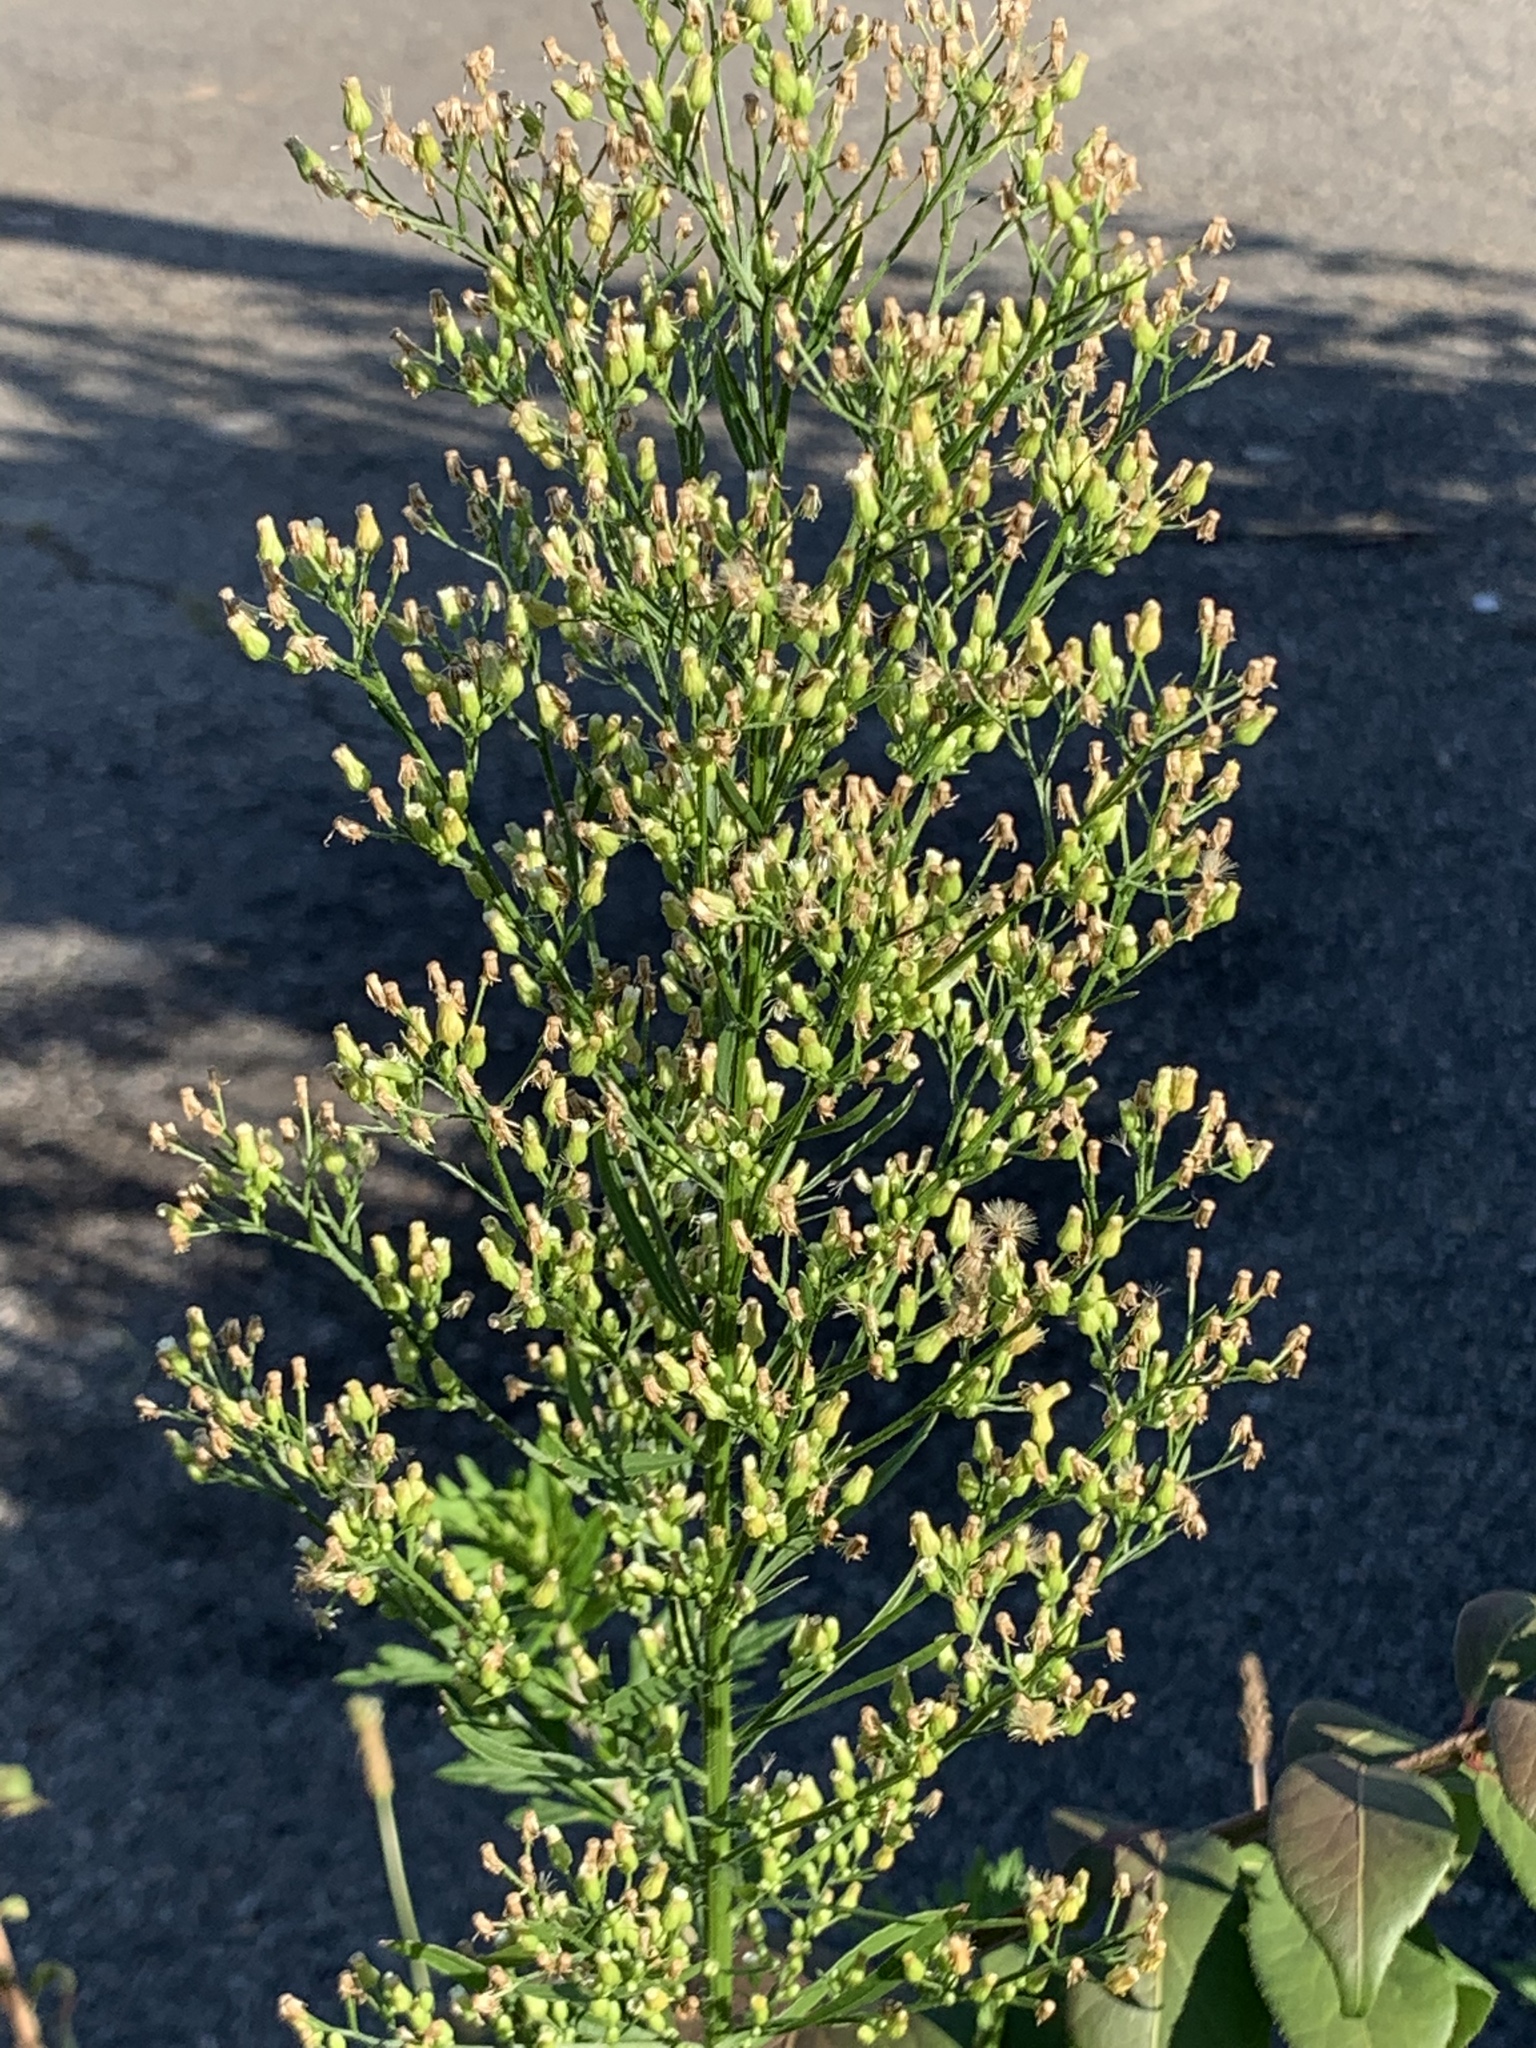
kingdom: Plantae
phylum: Tracheophyta
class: Magnoliopsida
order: Asterales
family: Asteraceae
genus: Erigeron
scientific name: Erigeron canadensis
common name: Canadian fleabane
